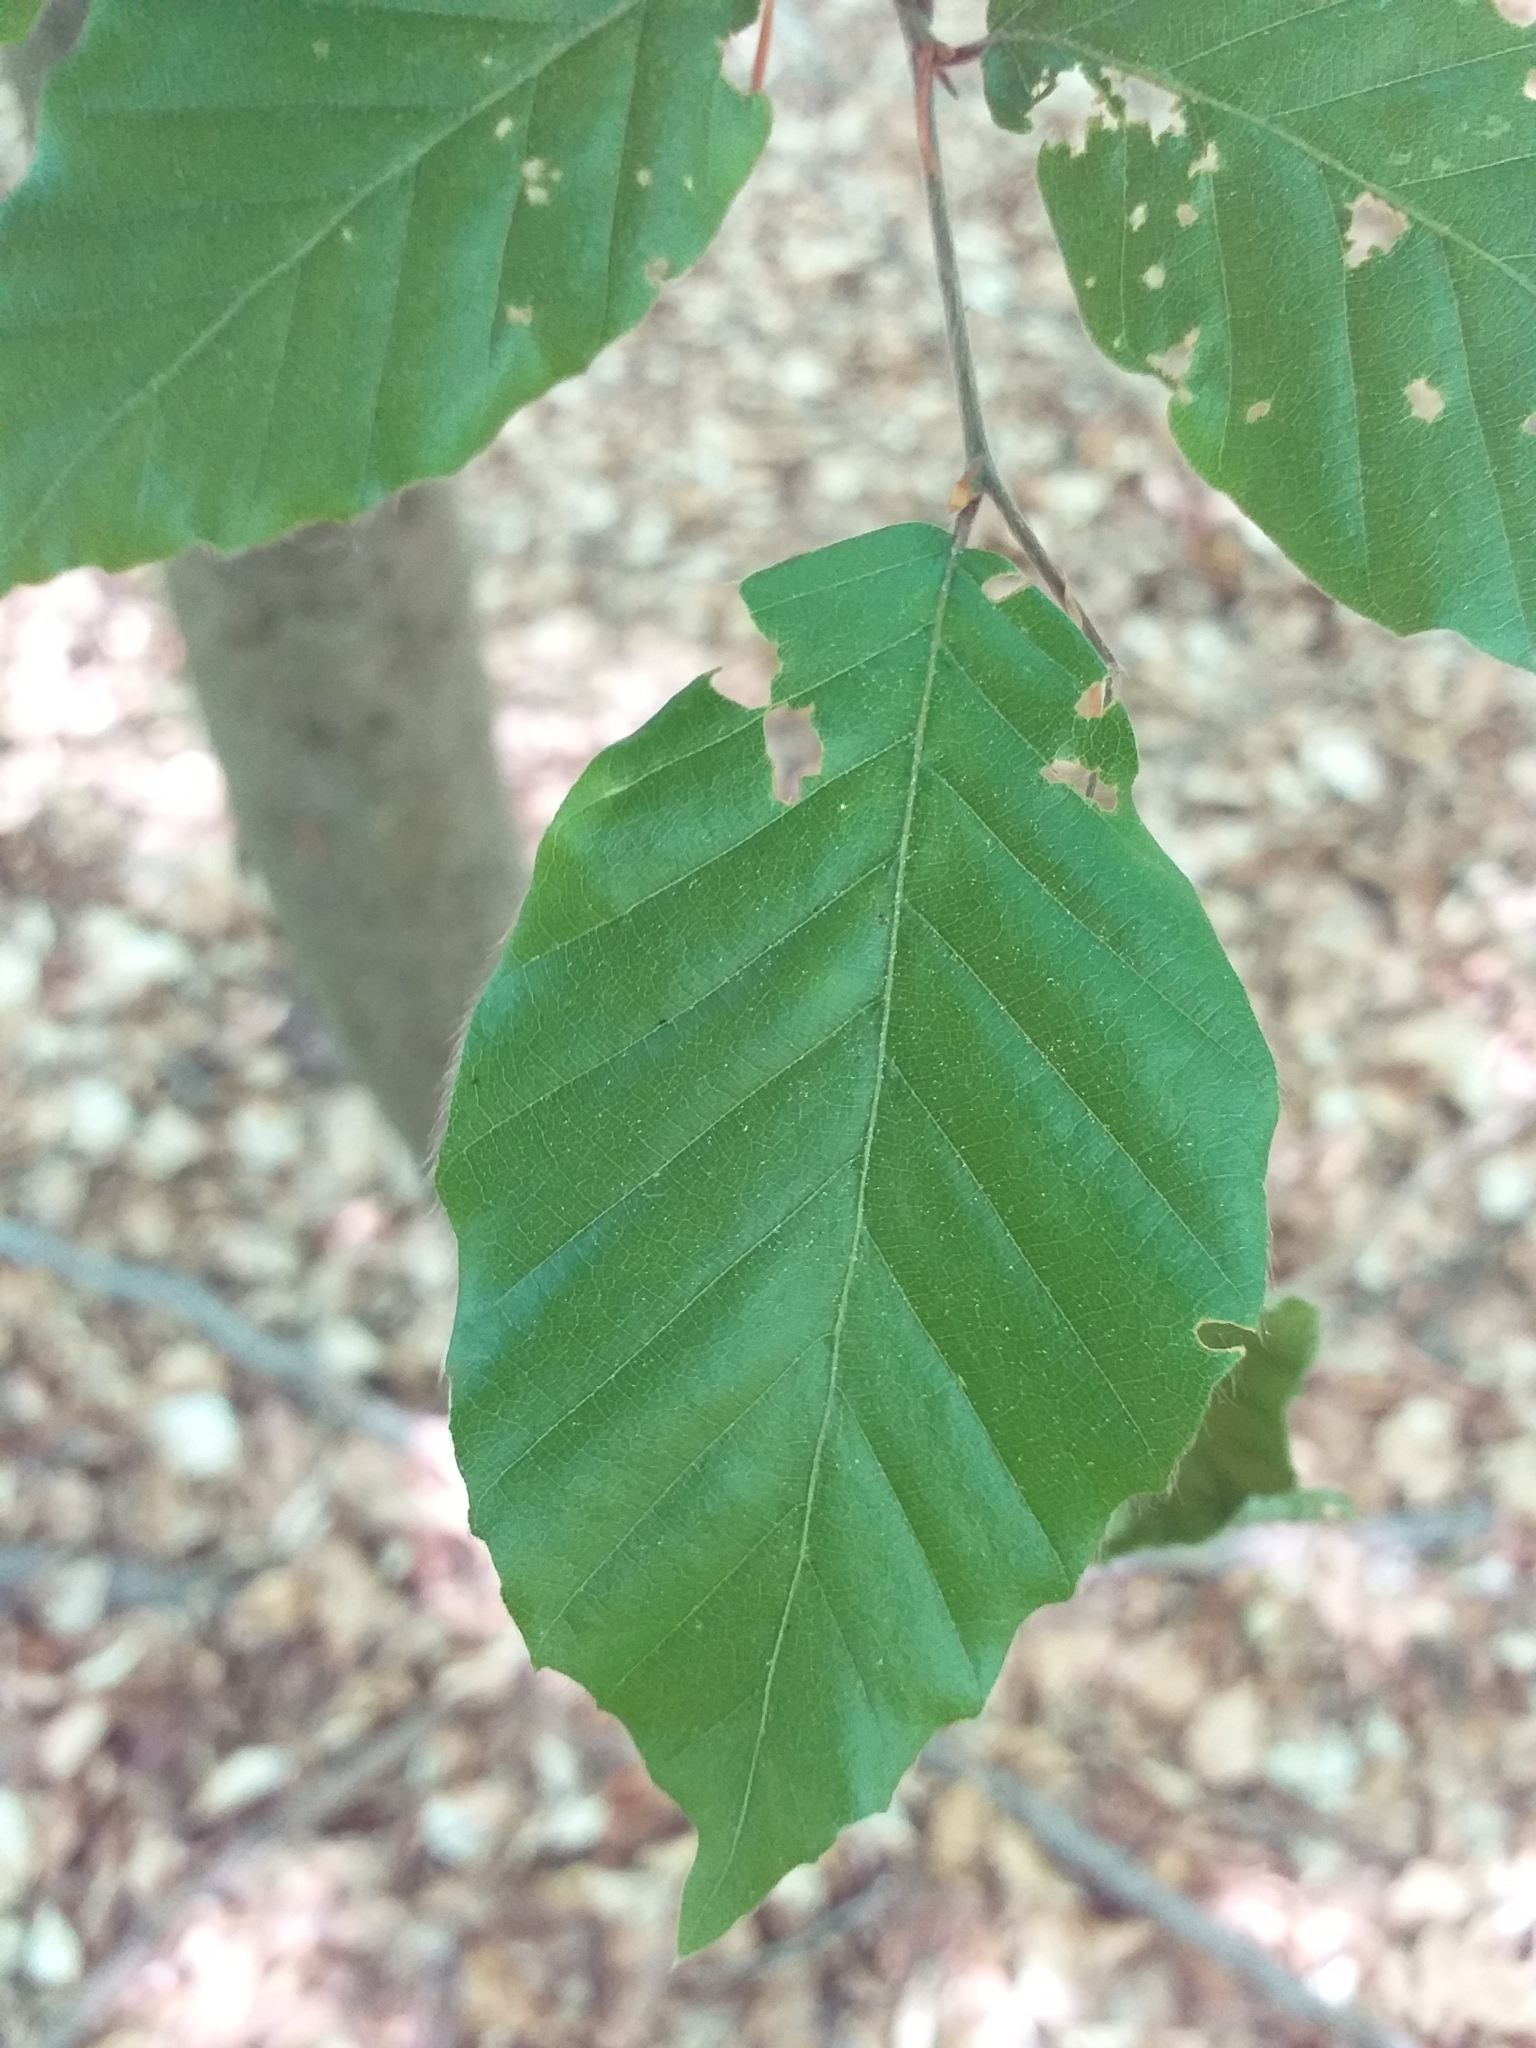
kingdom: Plantae
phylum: Tracheophyta
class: Magnoliopsida
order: Fagales
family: Fagaceae
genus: Fagus
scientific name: Fagus sylvatica
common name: Beech
